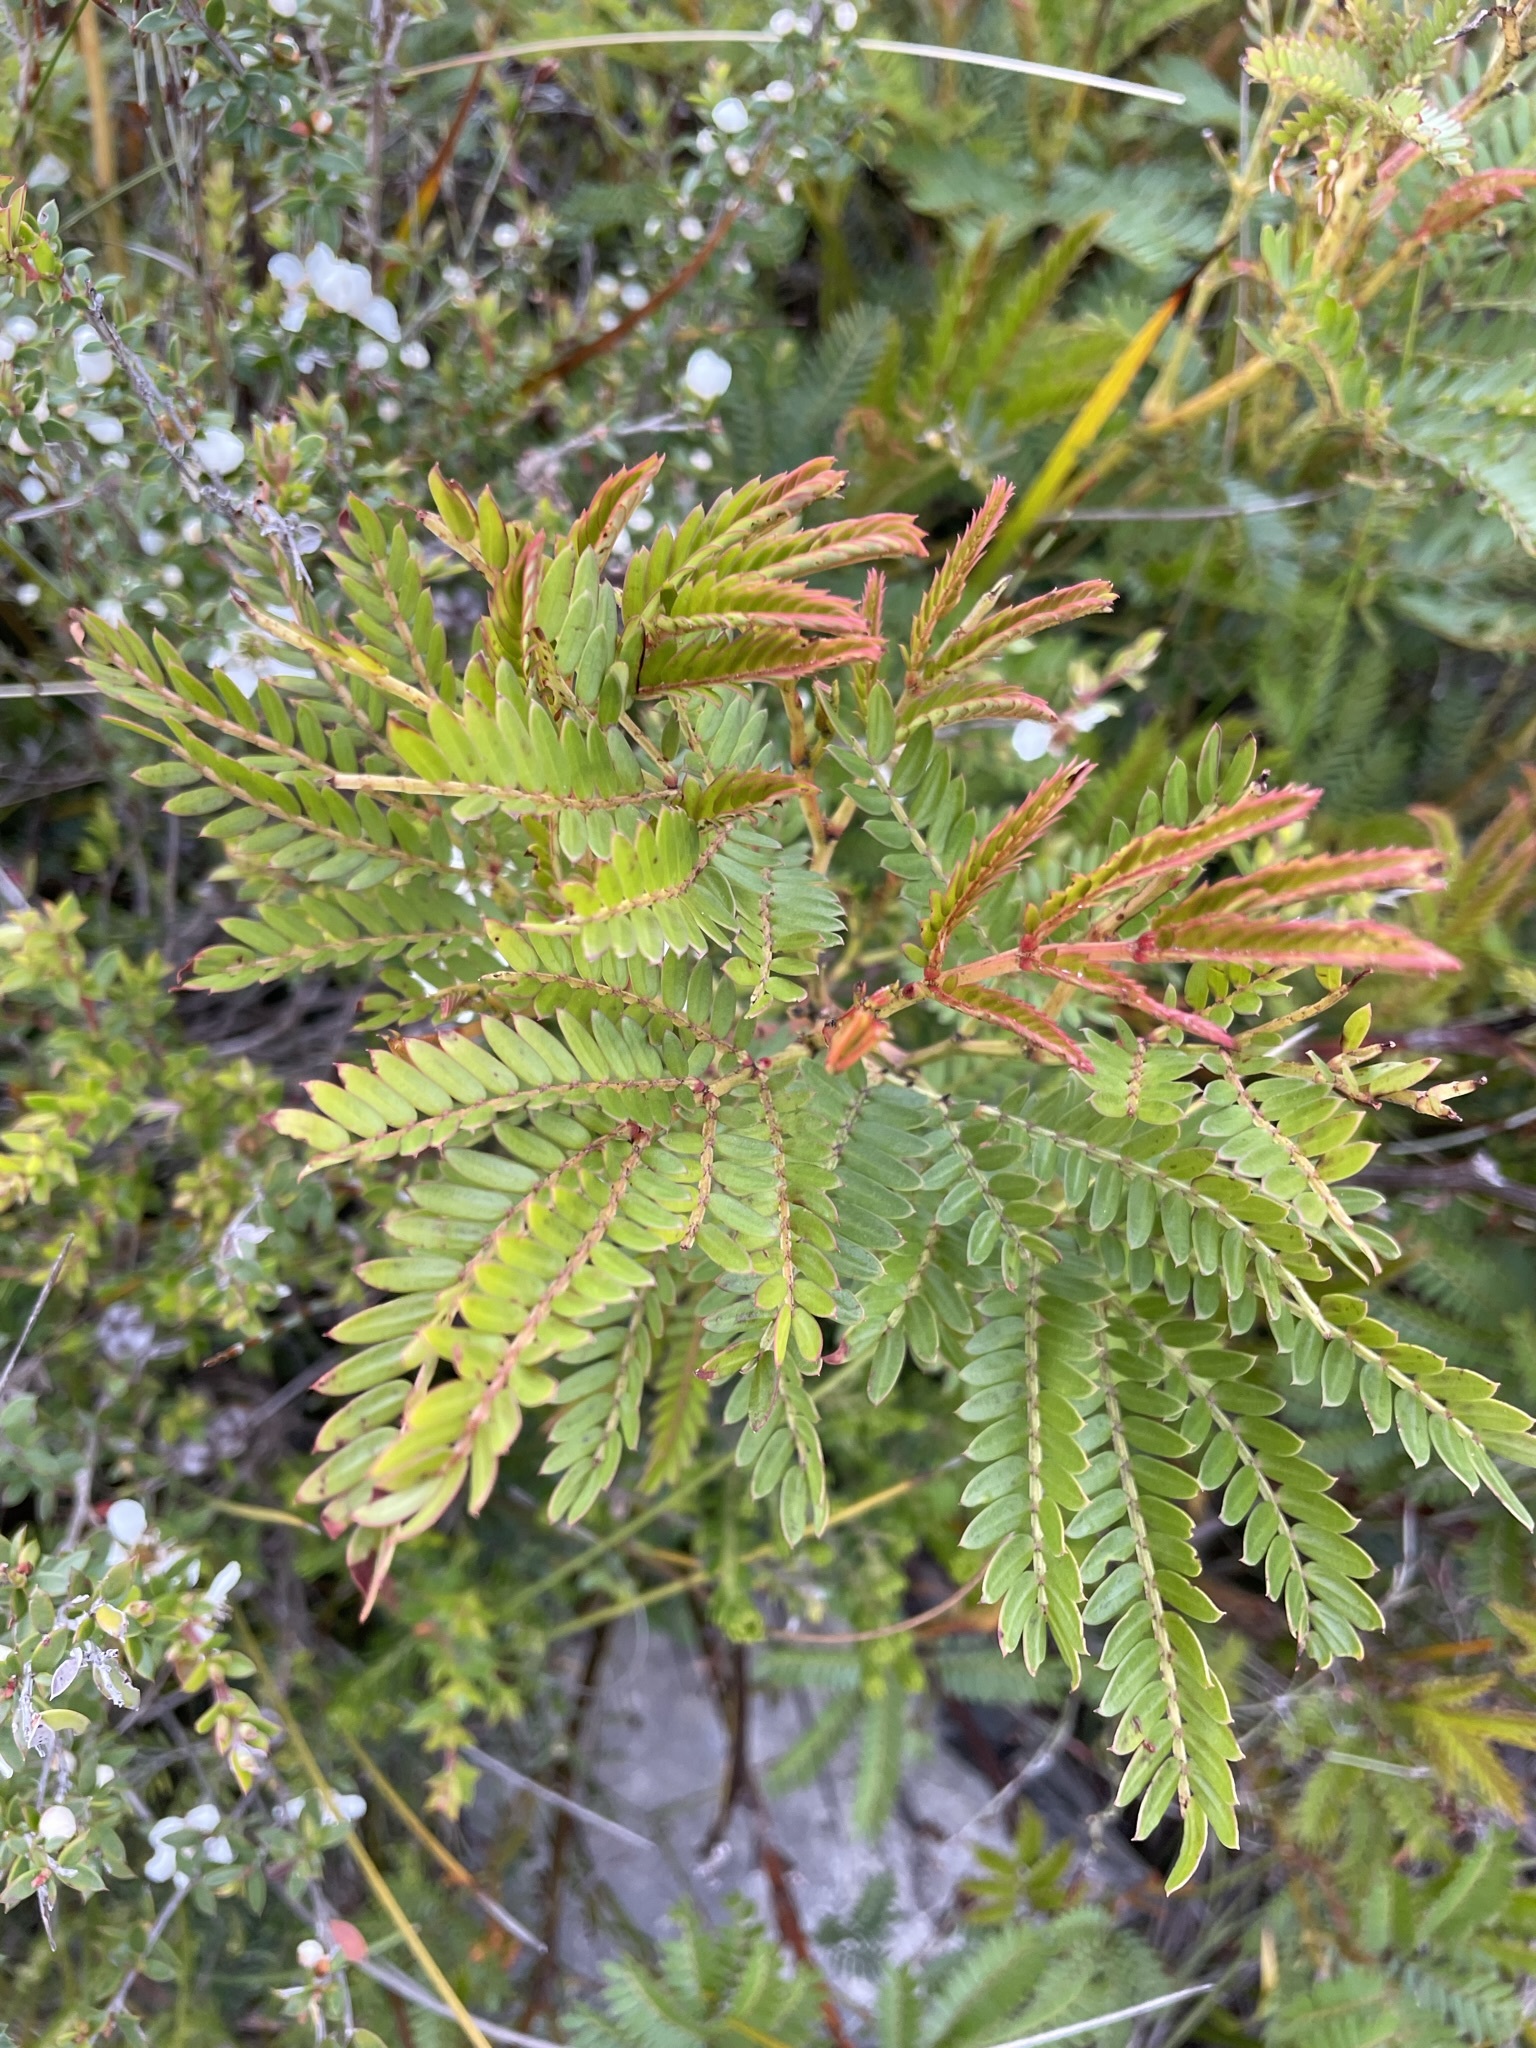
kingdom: Plantae
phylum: Tracheophyta
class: Magnoliopsida
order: Fabales
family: Fabaceae
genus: Acacia
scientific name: Acacia terminalis
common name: Cedar wattle
